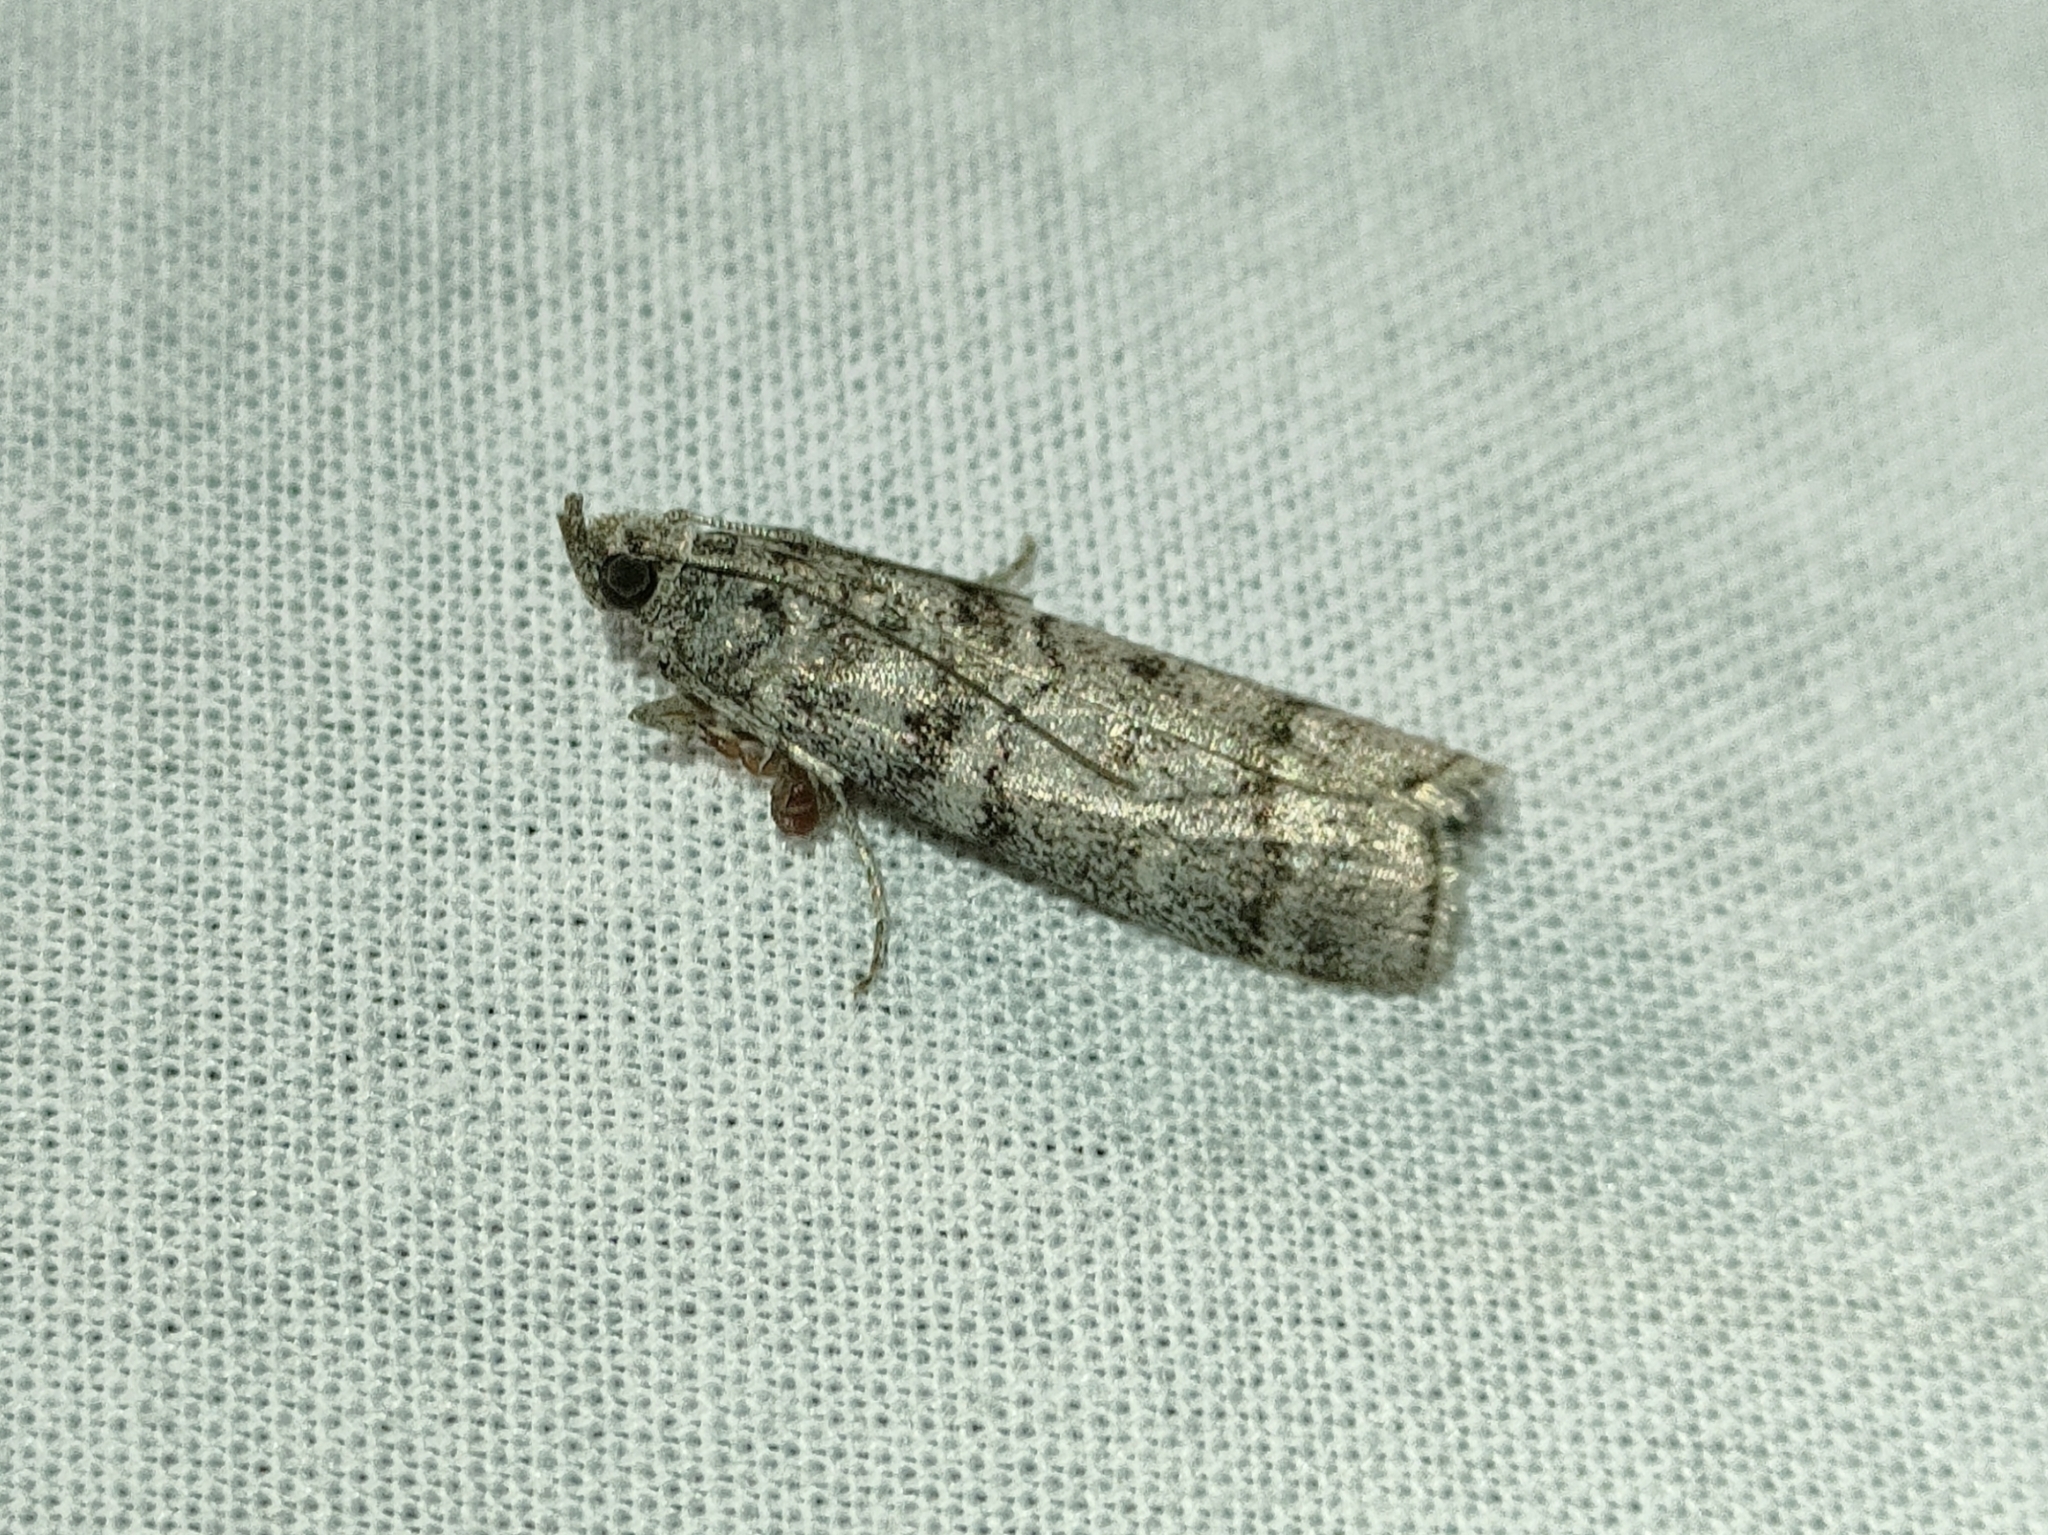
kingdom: Animalia
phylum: Arthropoda
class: Insecta
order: Lepidoptera
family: Pyralidae
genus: Dioryctria
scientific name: Dioryctria mendacella
